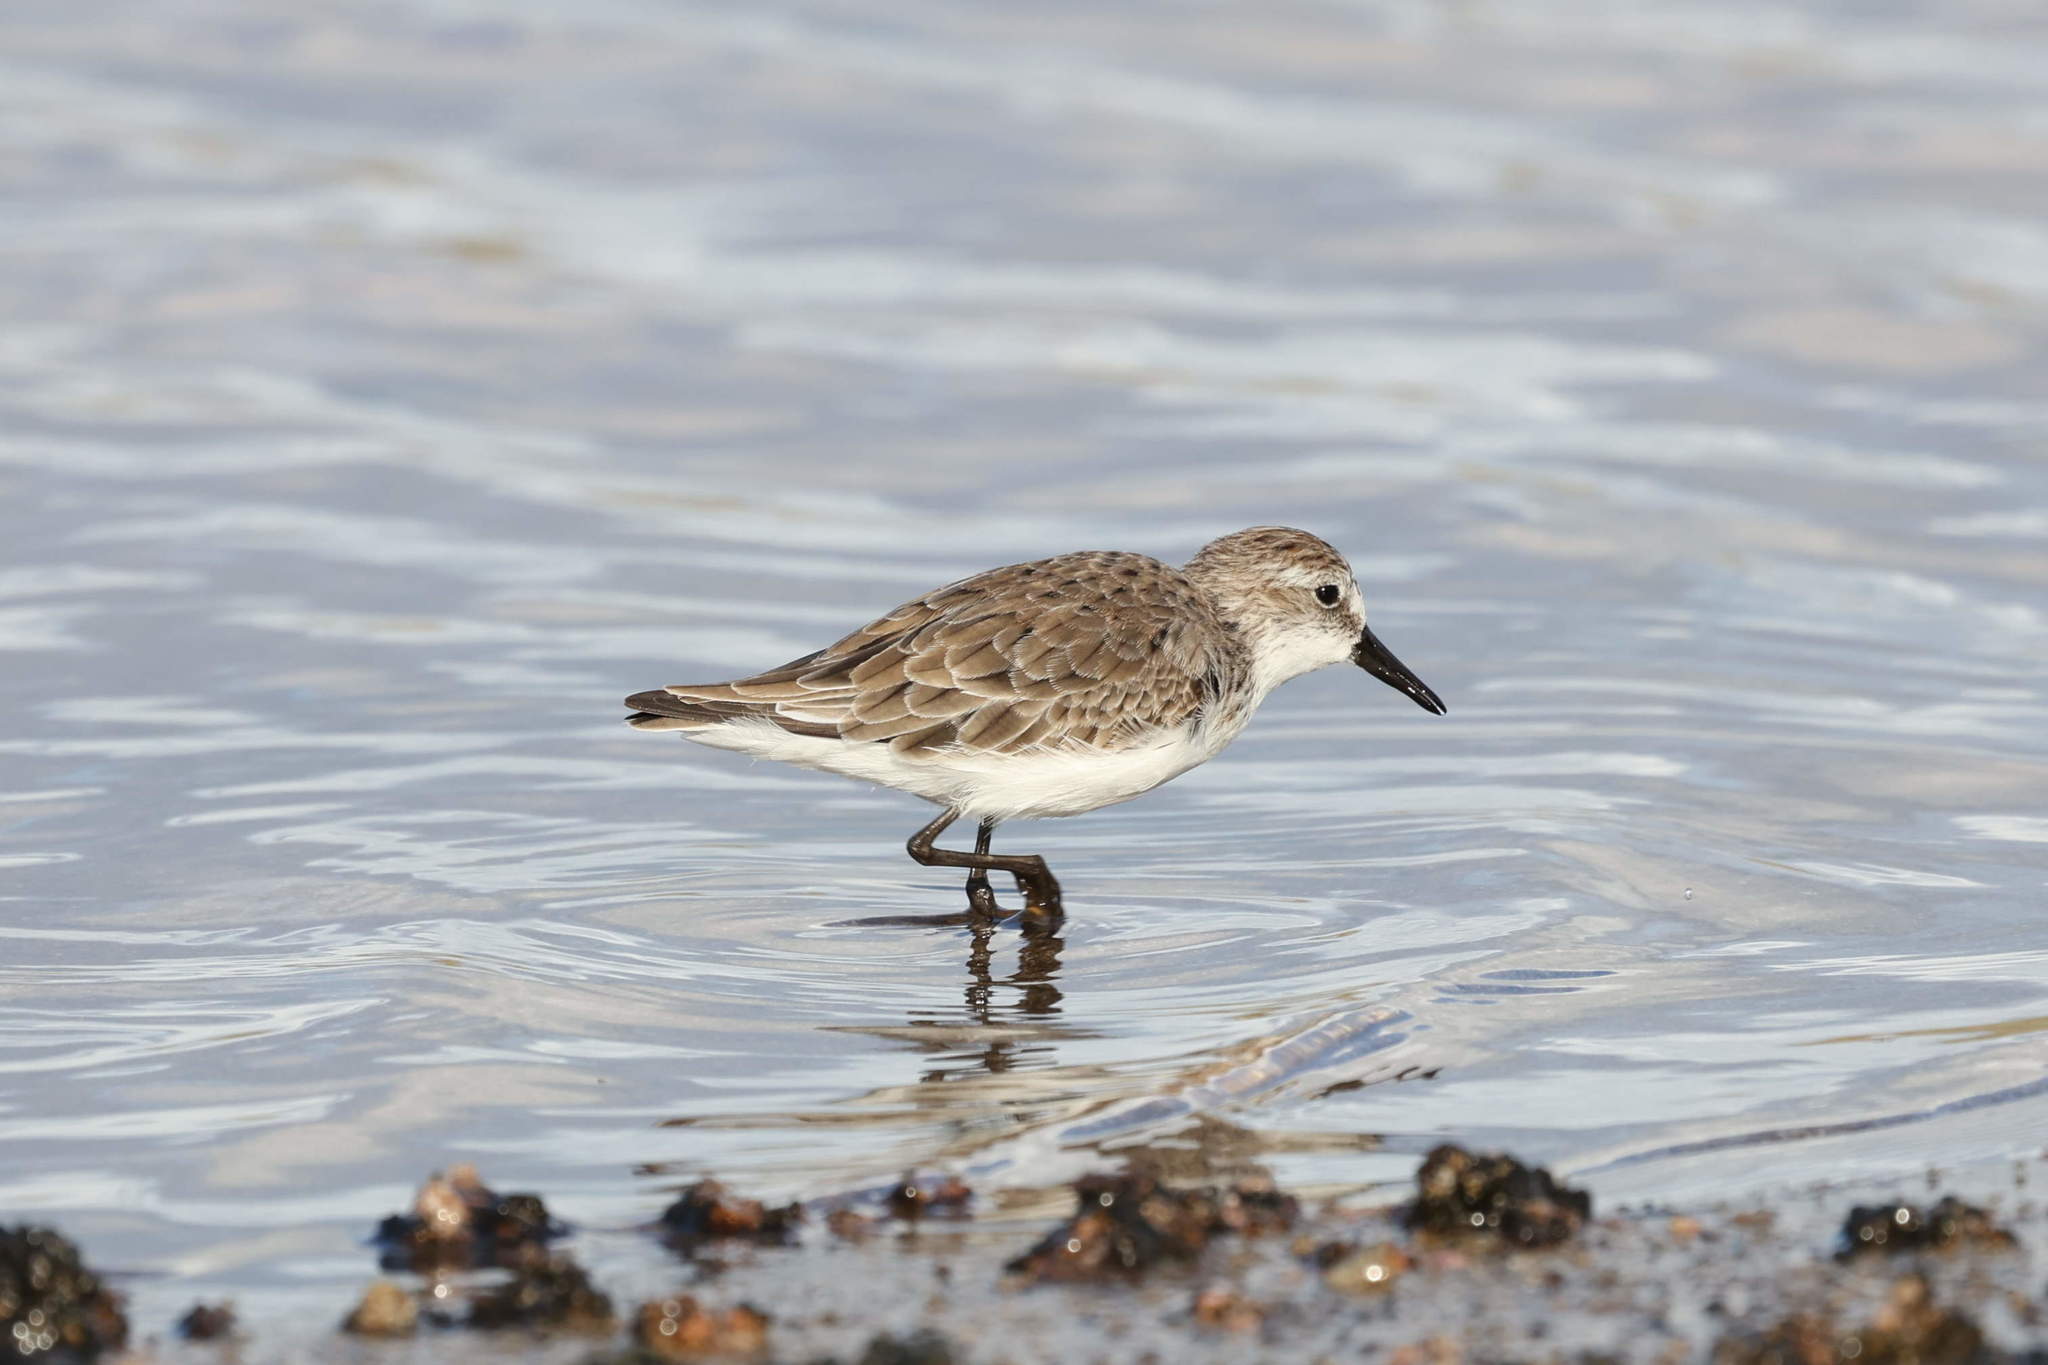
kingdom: Animalia
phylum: Chordata
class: Aves
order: Charadriiformes
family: Scolopacidae
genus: Calidris
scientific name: Calidris pusilla
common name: Semipalmated sandpiper
